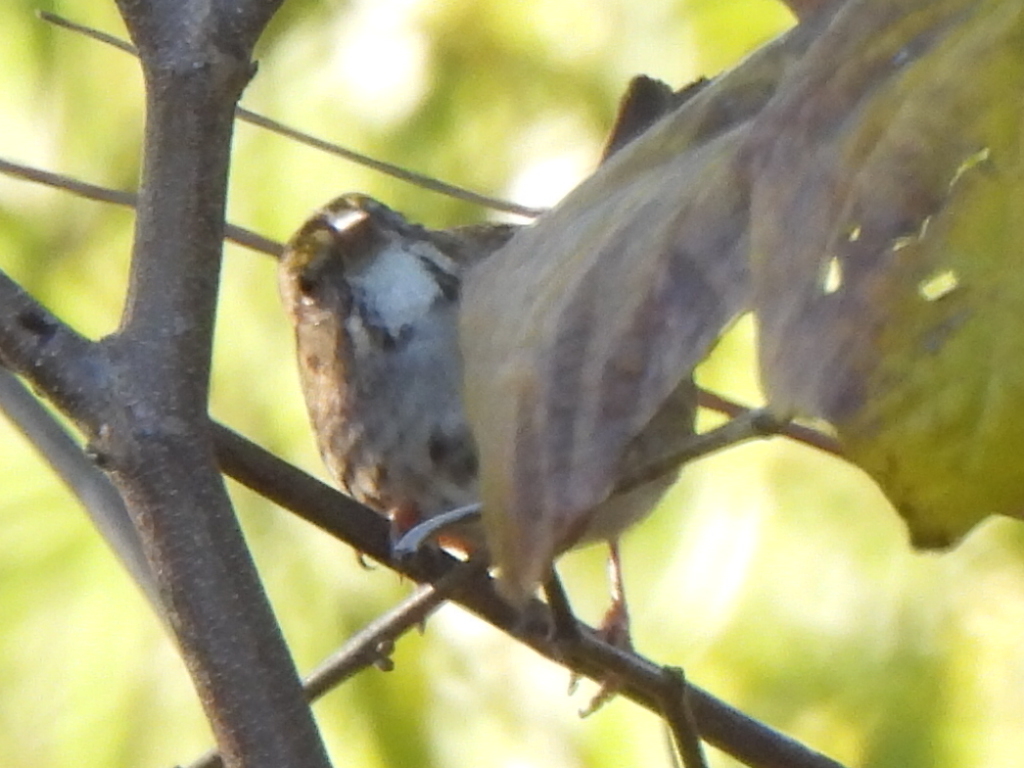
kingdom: Animalia
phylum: Chordata
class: Aves
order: Passeriformes
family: Passerellidae
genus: Zonotrichia
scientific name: Zonotrichia albicollis
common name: White-throated sparrow
